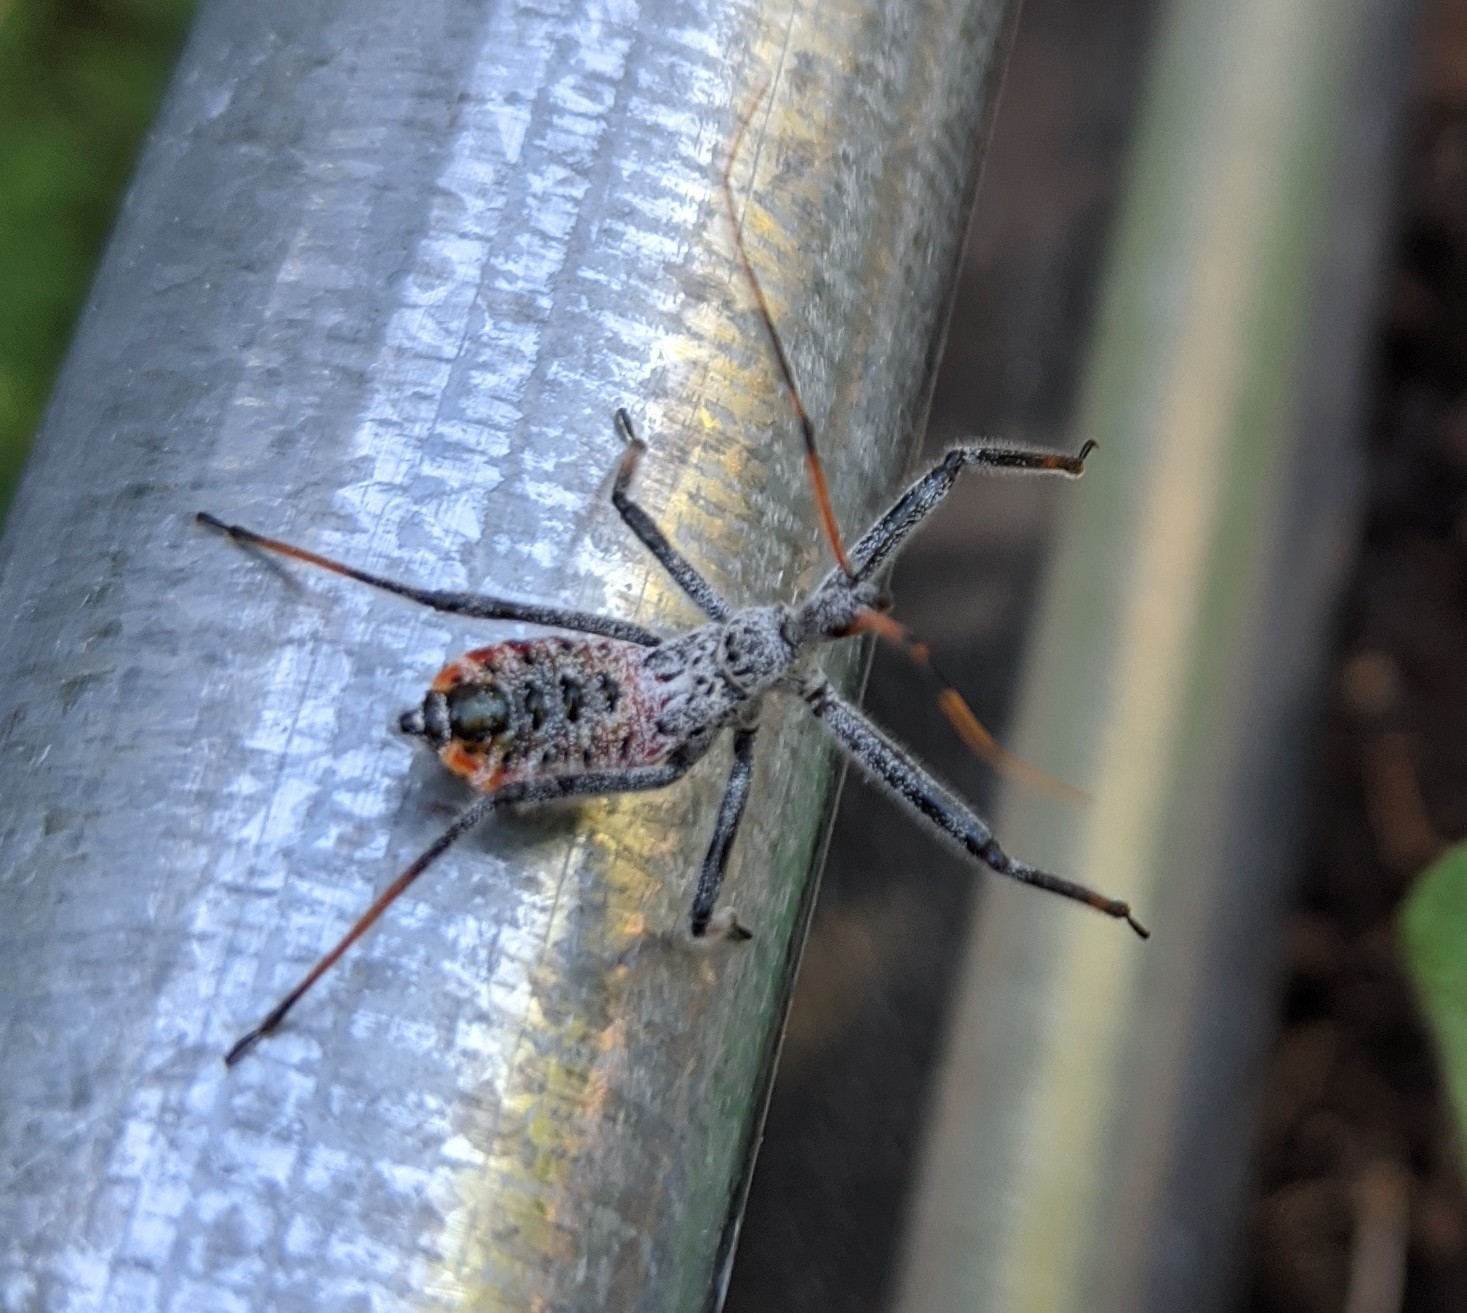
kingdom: Animalia
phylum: Arthropoda
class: Insecta
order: Hemiptera
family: Reduviidae
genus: Arilus
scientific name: Arilus cristatus
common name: North american wheel bug
